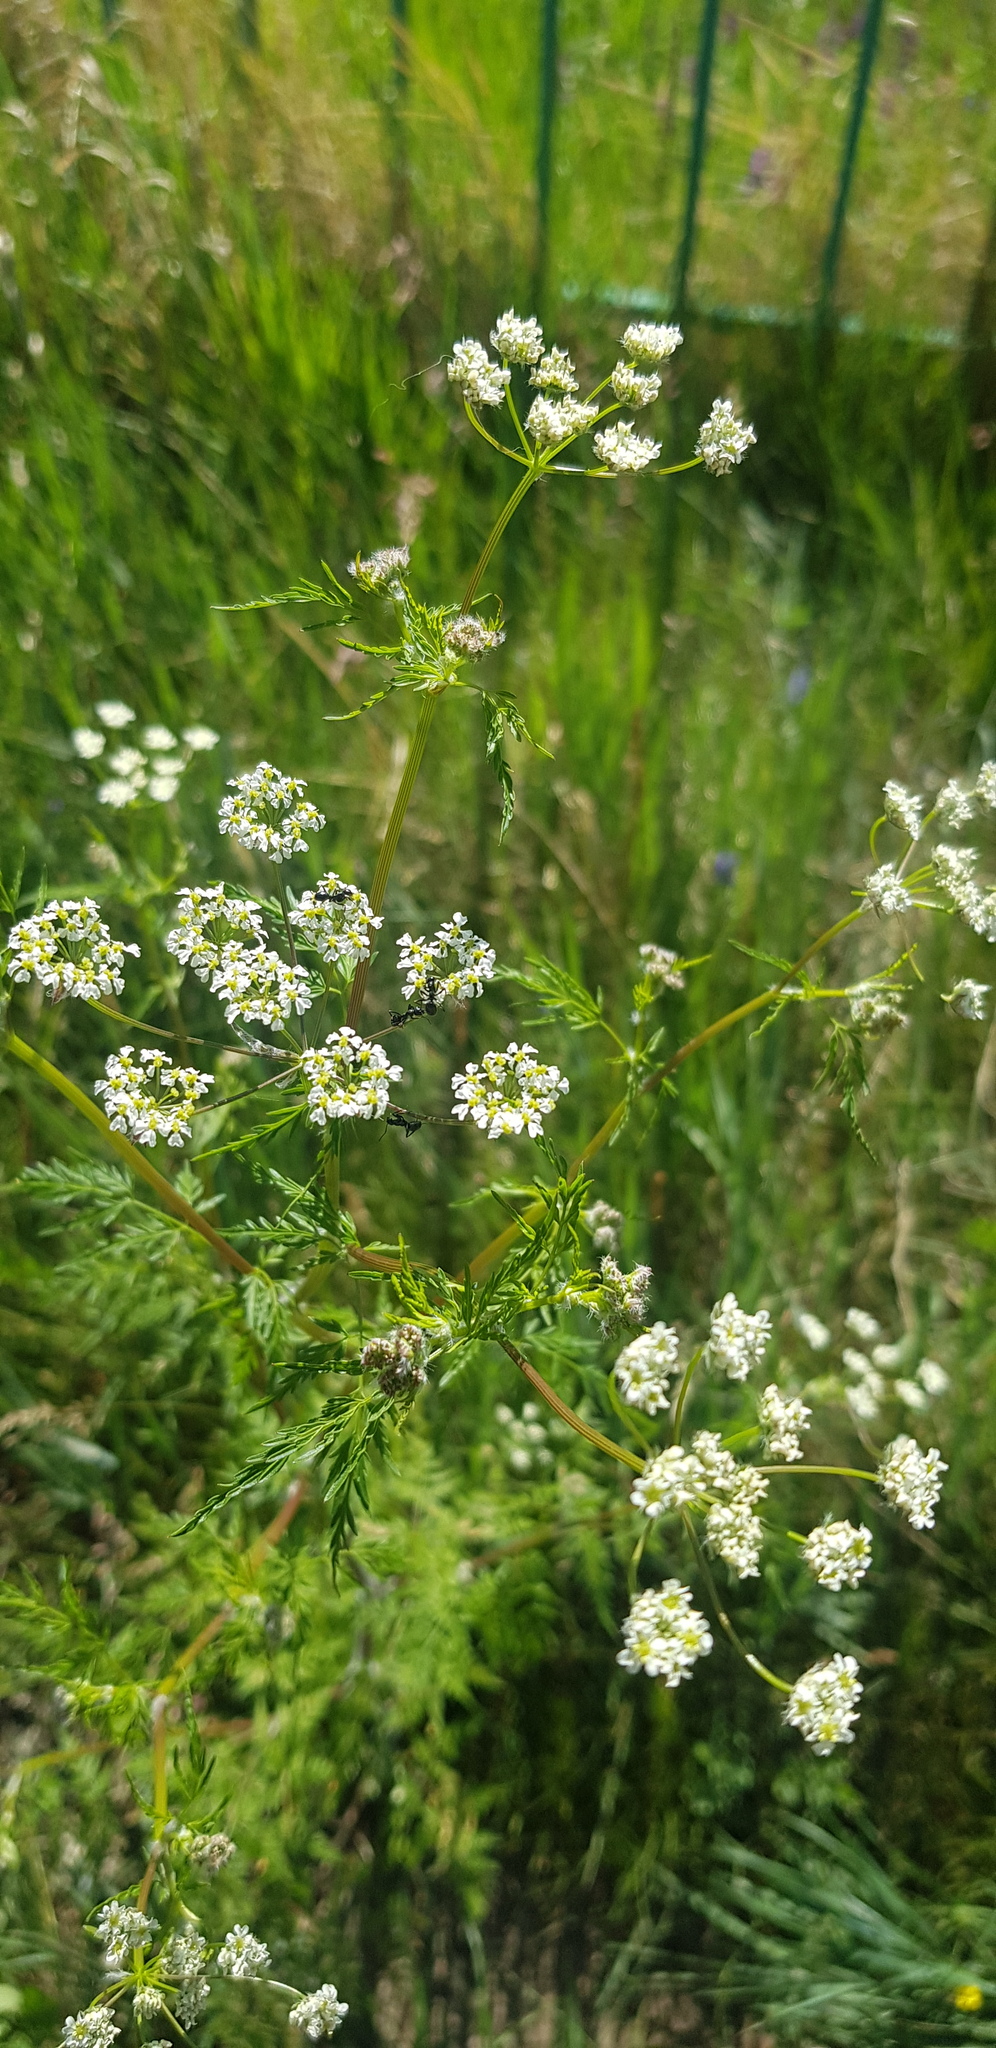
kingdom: Plantae
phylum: Tracheophyta
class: Magnoliopsida
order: Apiales
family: Apiaceae
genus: Sphallerocarpus
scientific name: Sphallerocarpus gracilis
